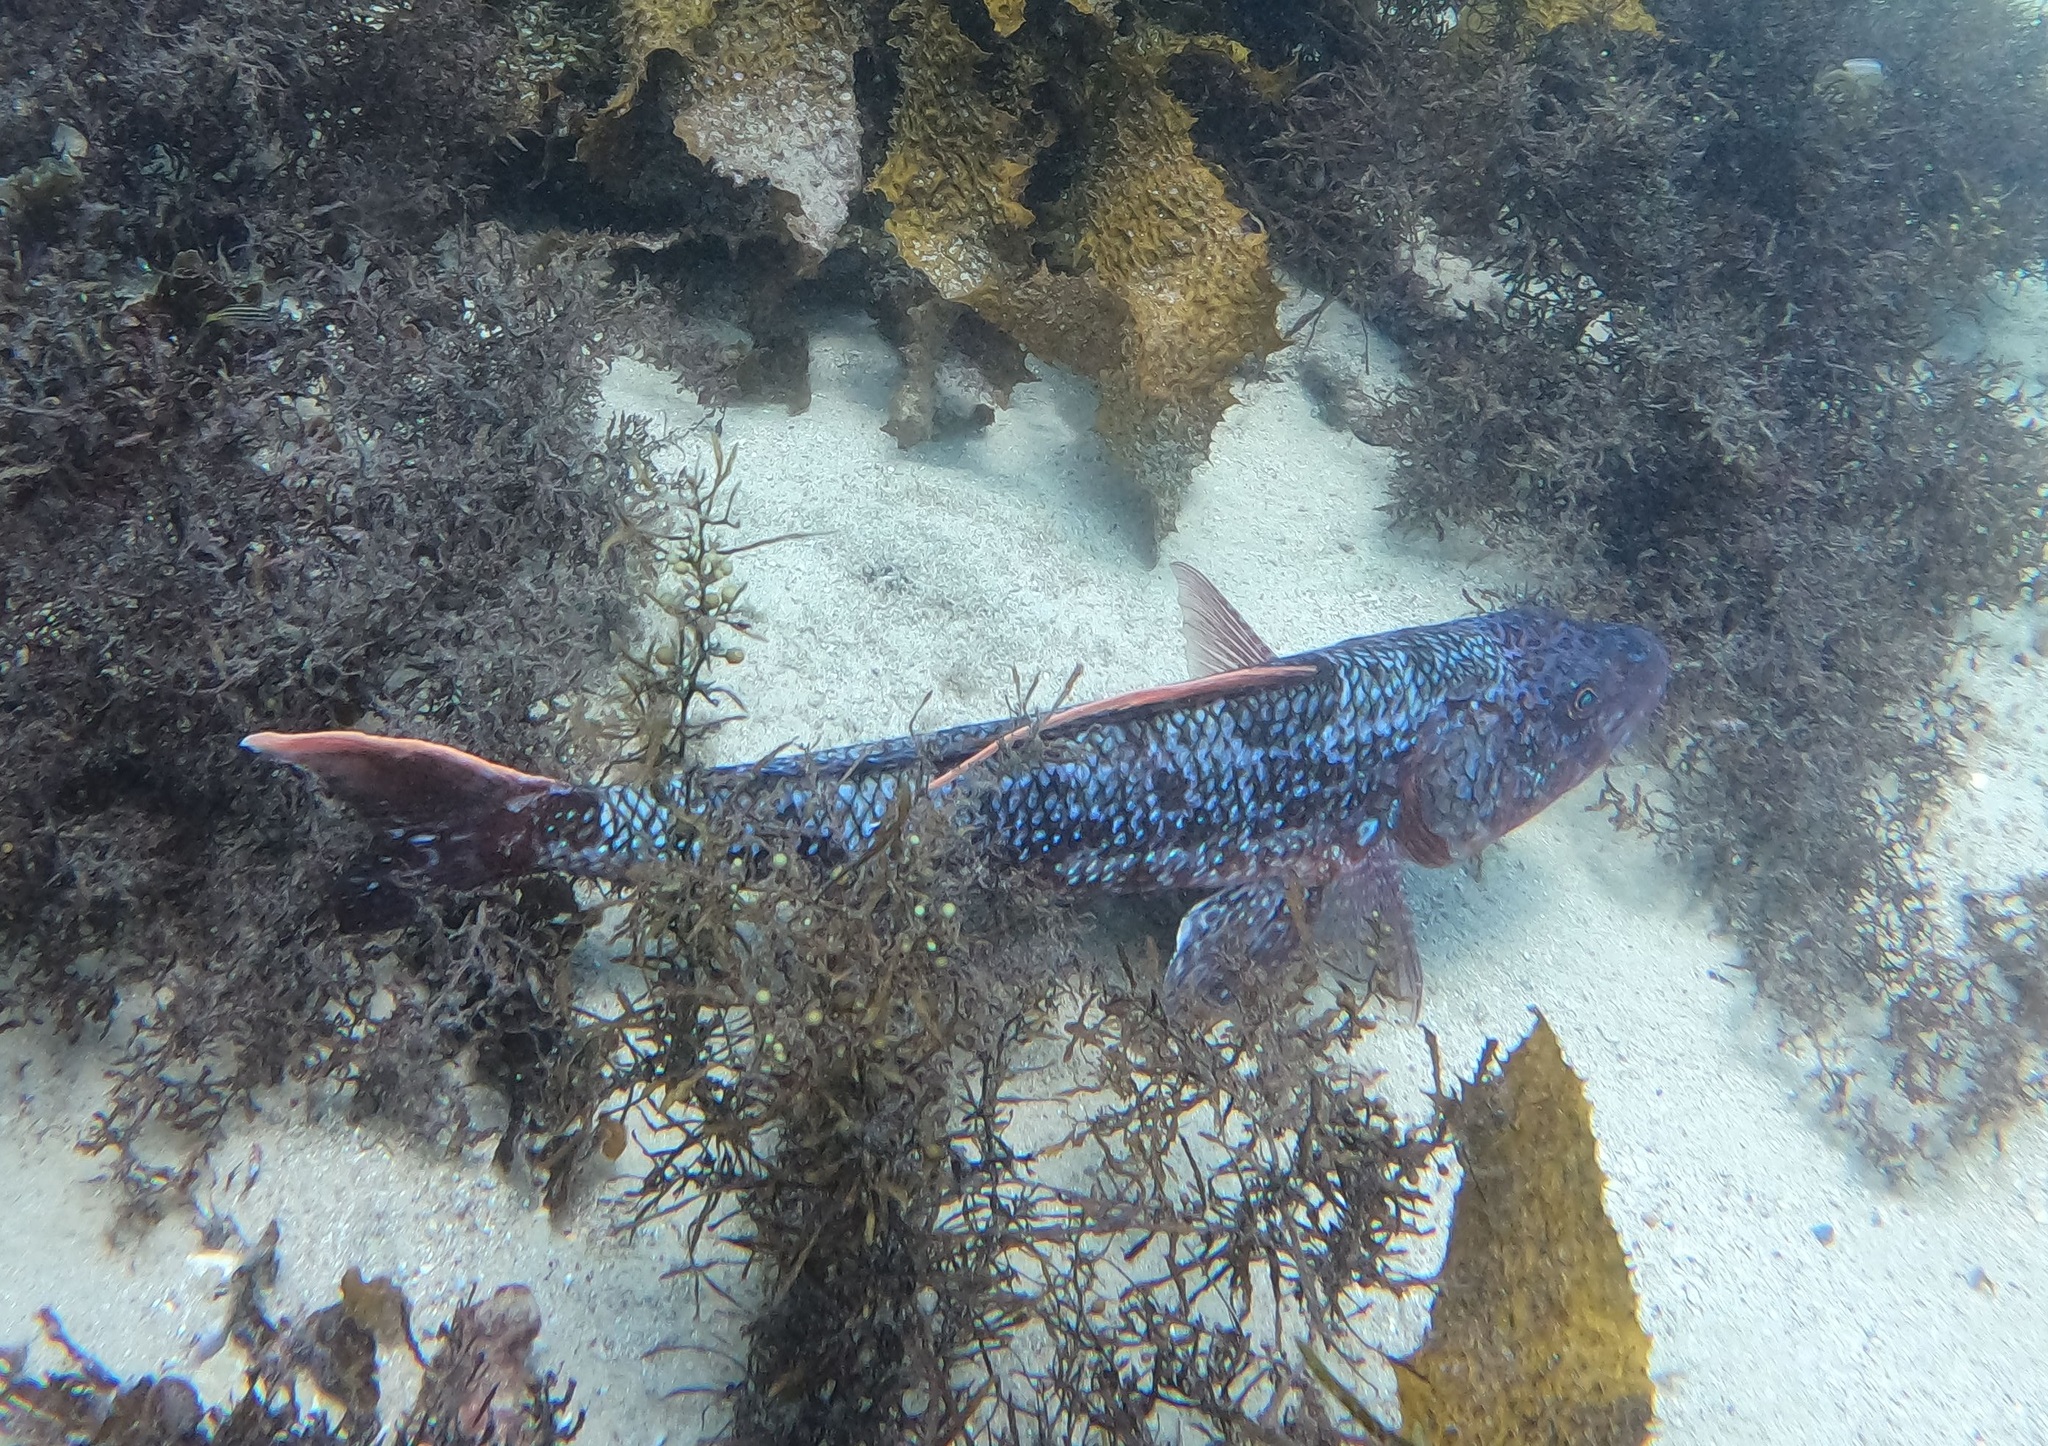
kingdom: Animalia
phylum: Chordata
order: Aulopiformes
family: Aulopidae
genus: Latropiscis
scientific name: Latropiscis purpurissatus
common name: Sergeant baker
